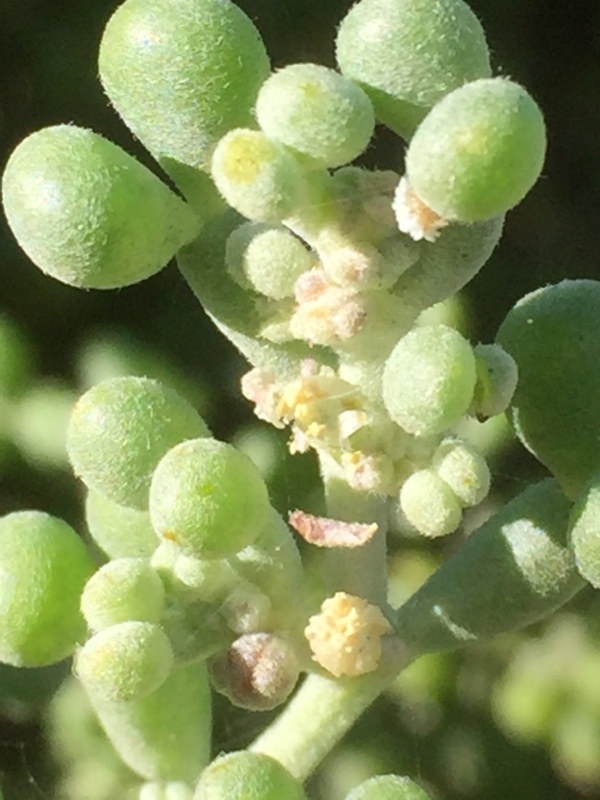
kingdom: Plantae
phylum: Tracheophyta
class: Magnoliopsida
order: Zygophyllales
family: Zygophyllaceae
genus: Tetraena
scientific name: Tetraena fontanesii
